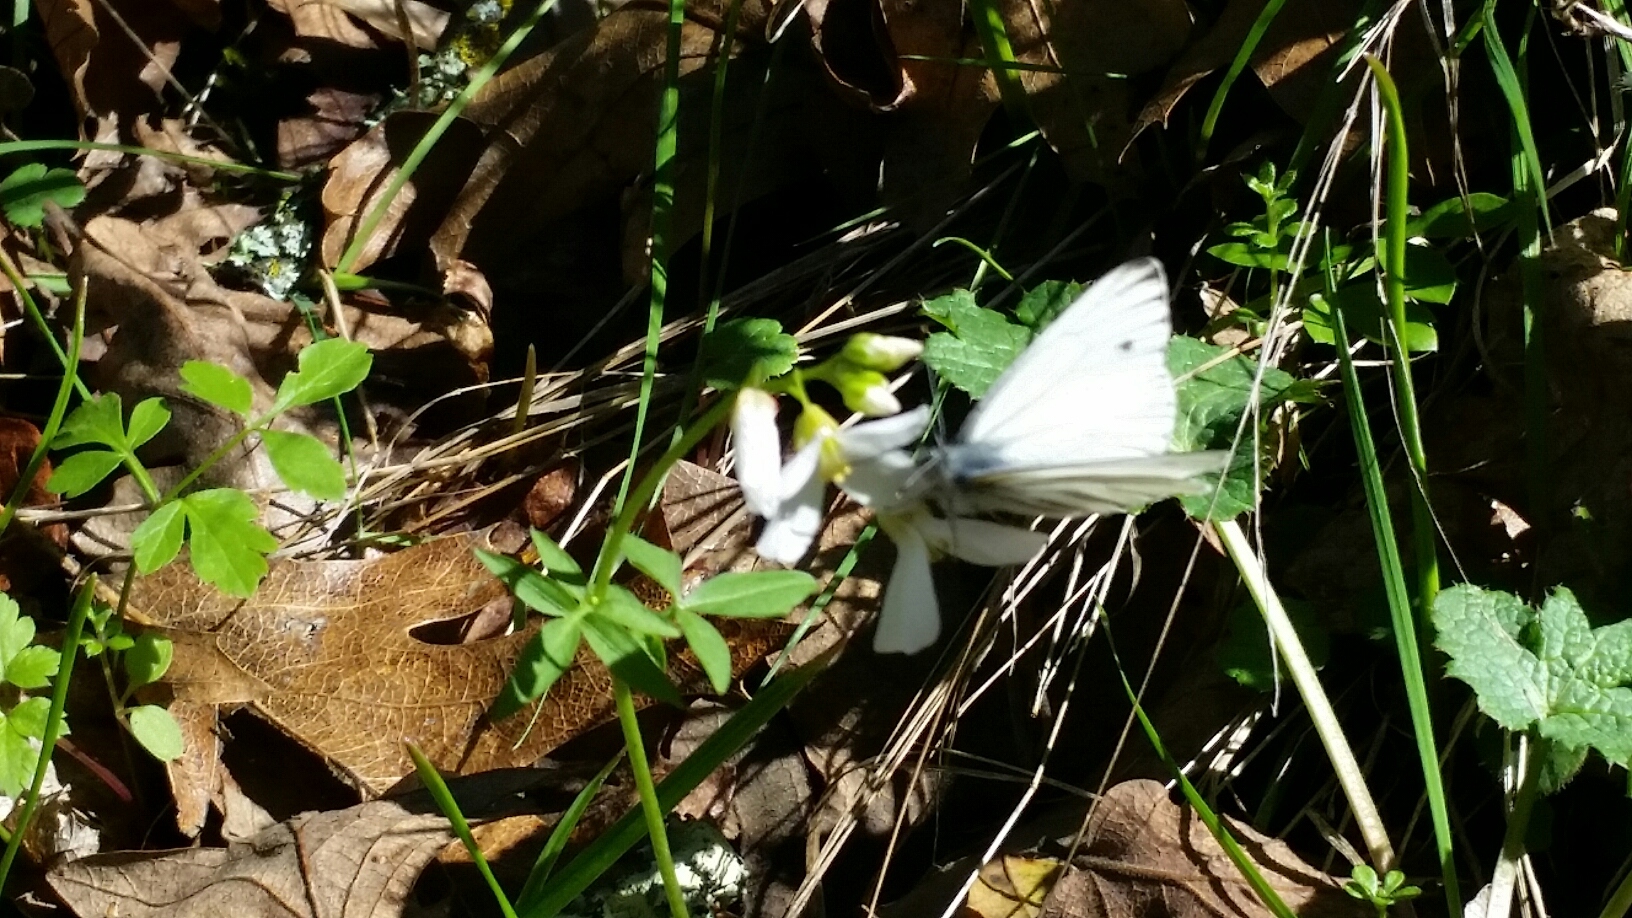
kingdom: Animalia
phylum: Arthropoda
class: Insecta
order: Lepidoptera
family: Pieridae
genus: Pieris
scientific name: Pieris marginalis
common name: Margined white
